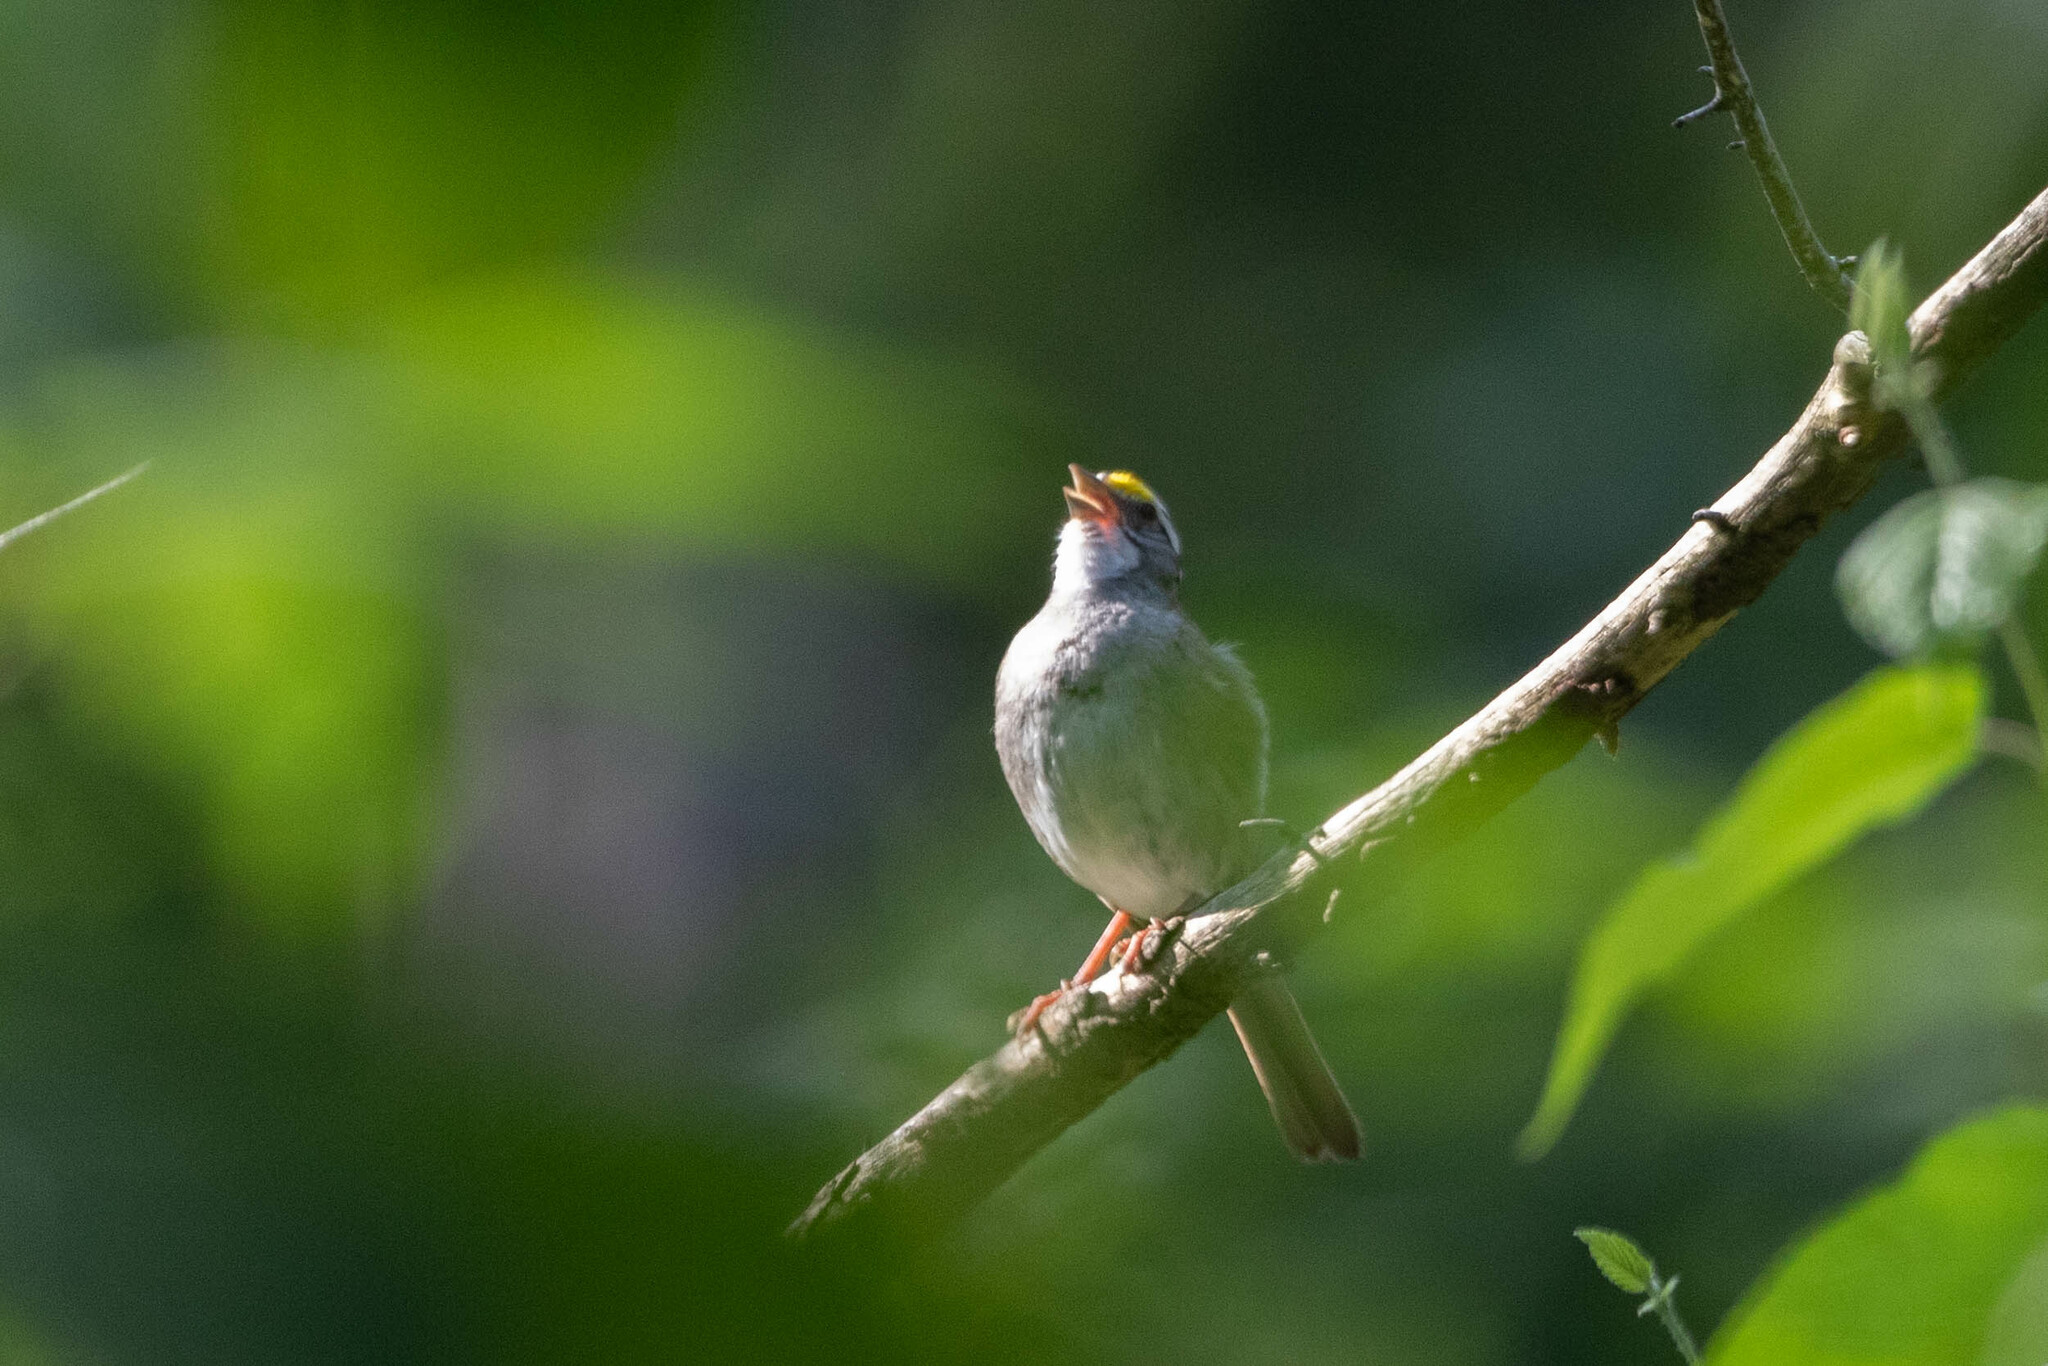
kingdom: Animalia
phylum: Chordata
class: Aves
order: Passeriformes
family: Passerellidae
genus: Zonotrichia
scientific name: Zonotrichia albicollis
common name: White-throated sparrow
